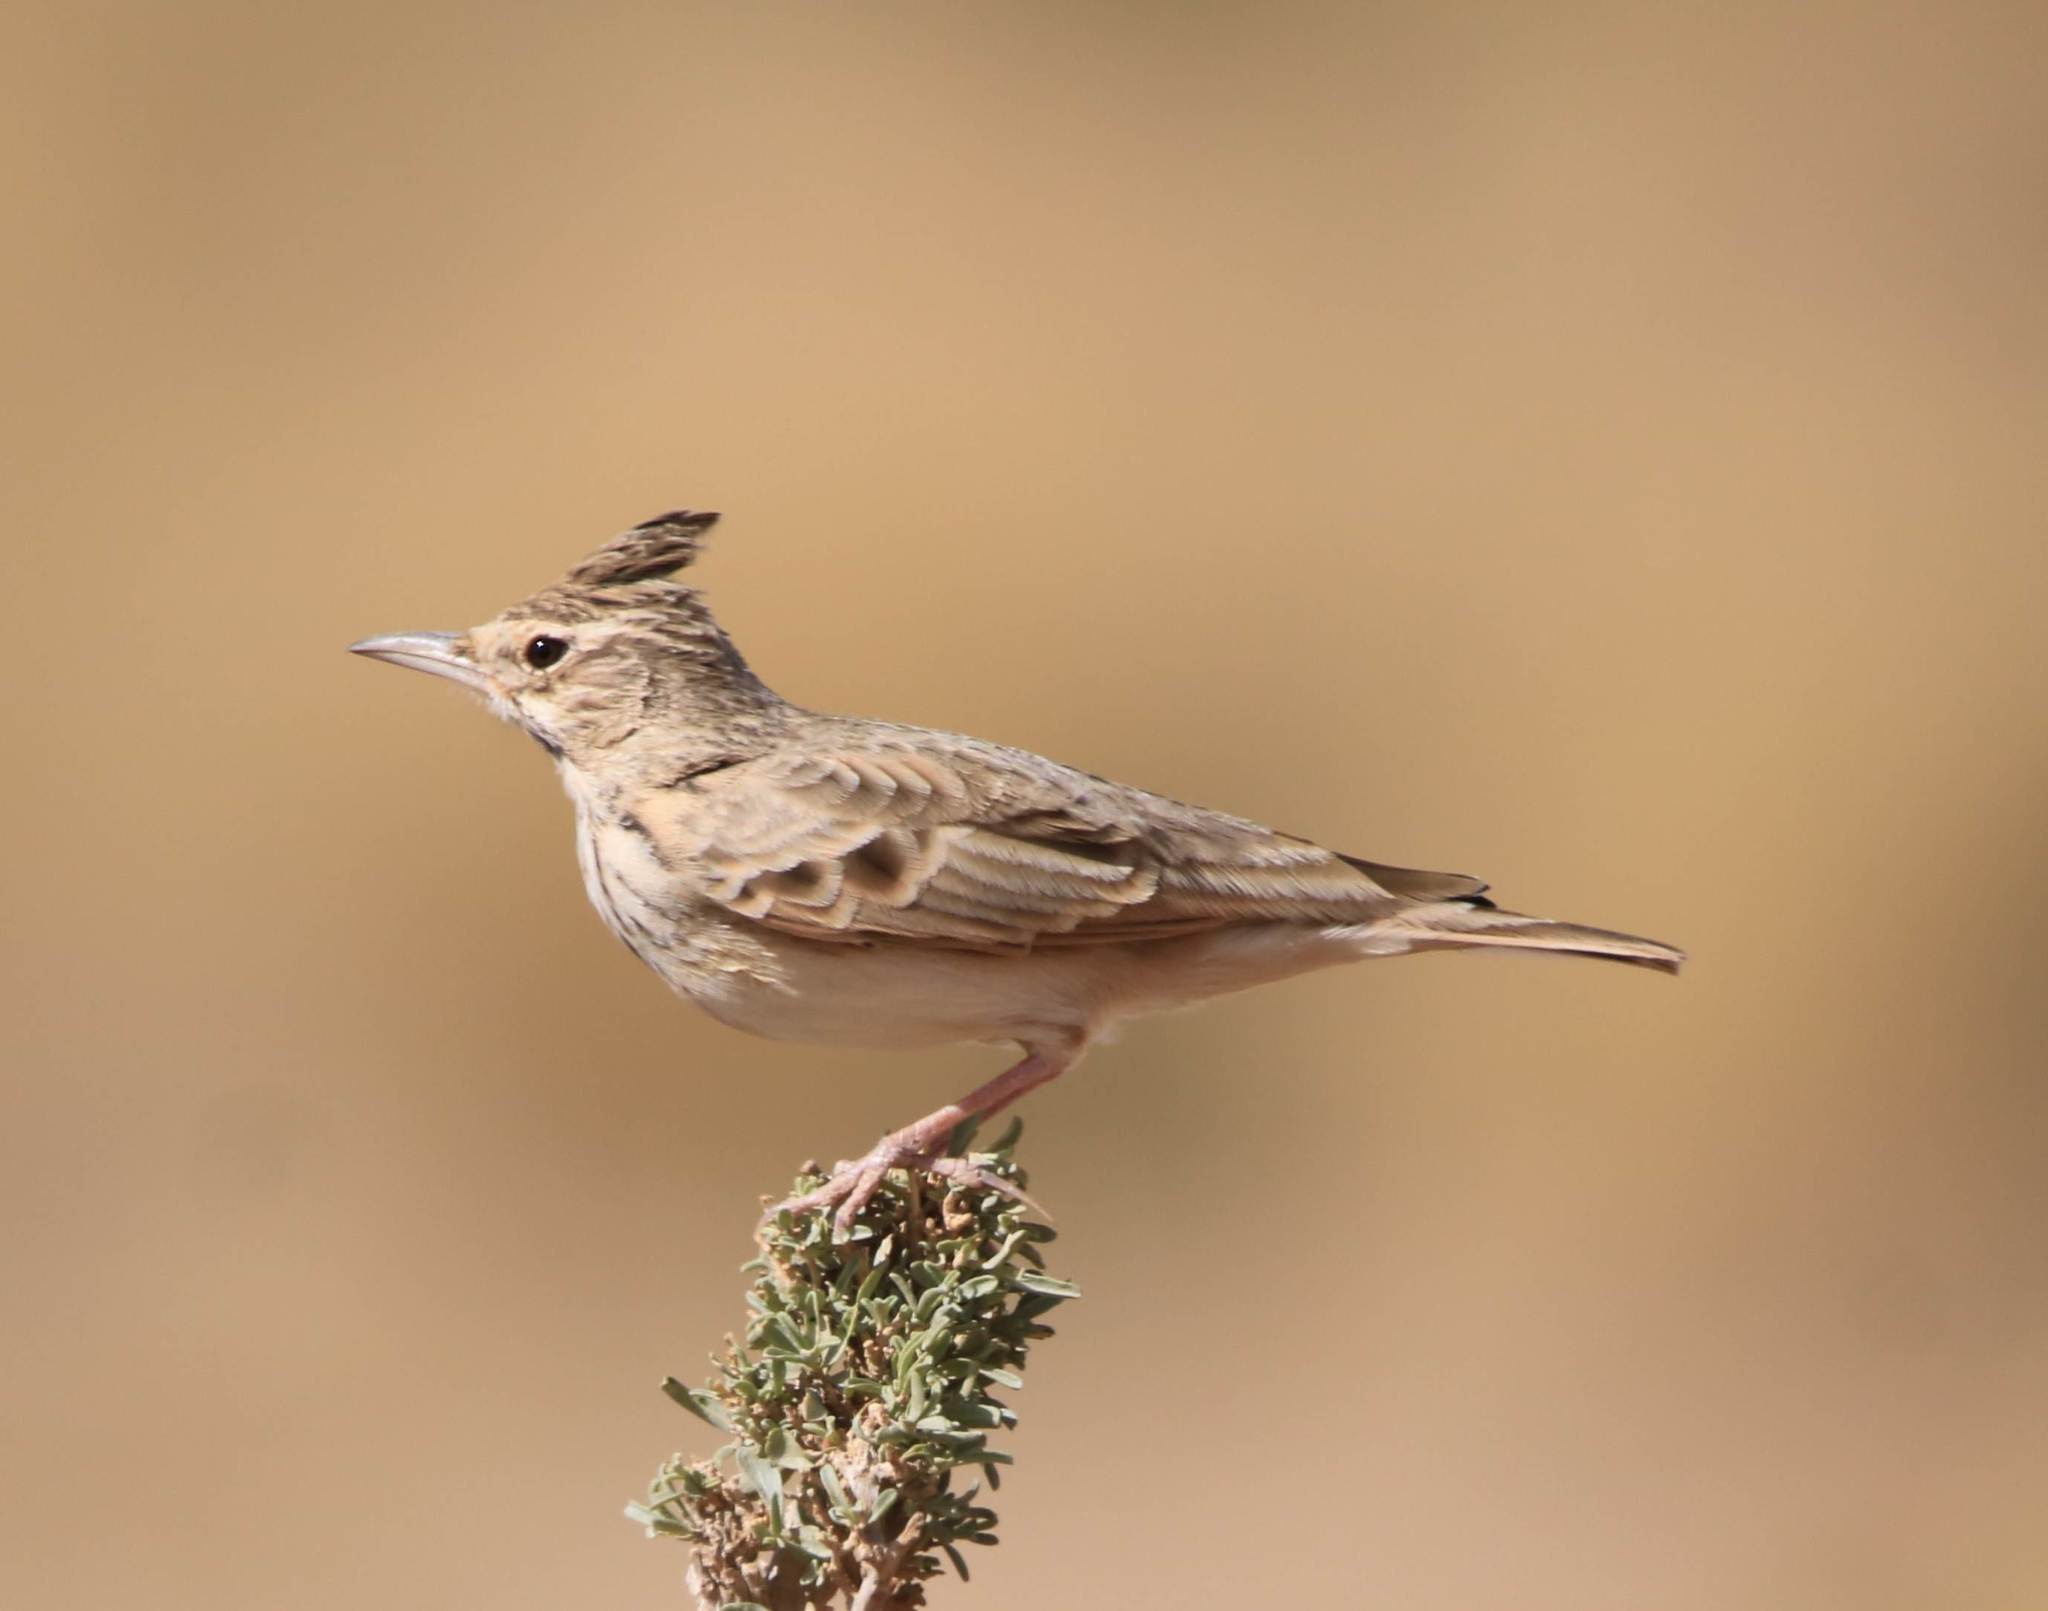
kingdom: Animalia
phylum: Chordata
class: Aves
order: Passeriformes
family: Alaudidae
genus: Galerida
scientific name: Galerida cristata
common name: Crested lark
